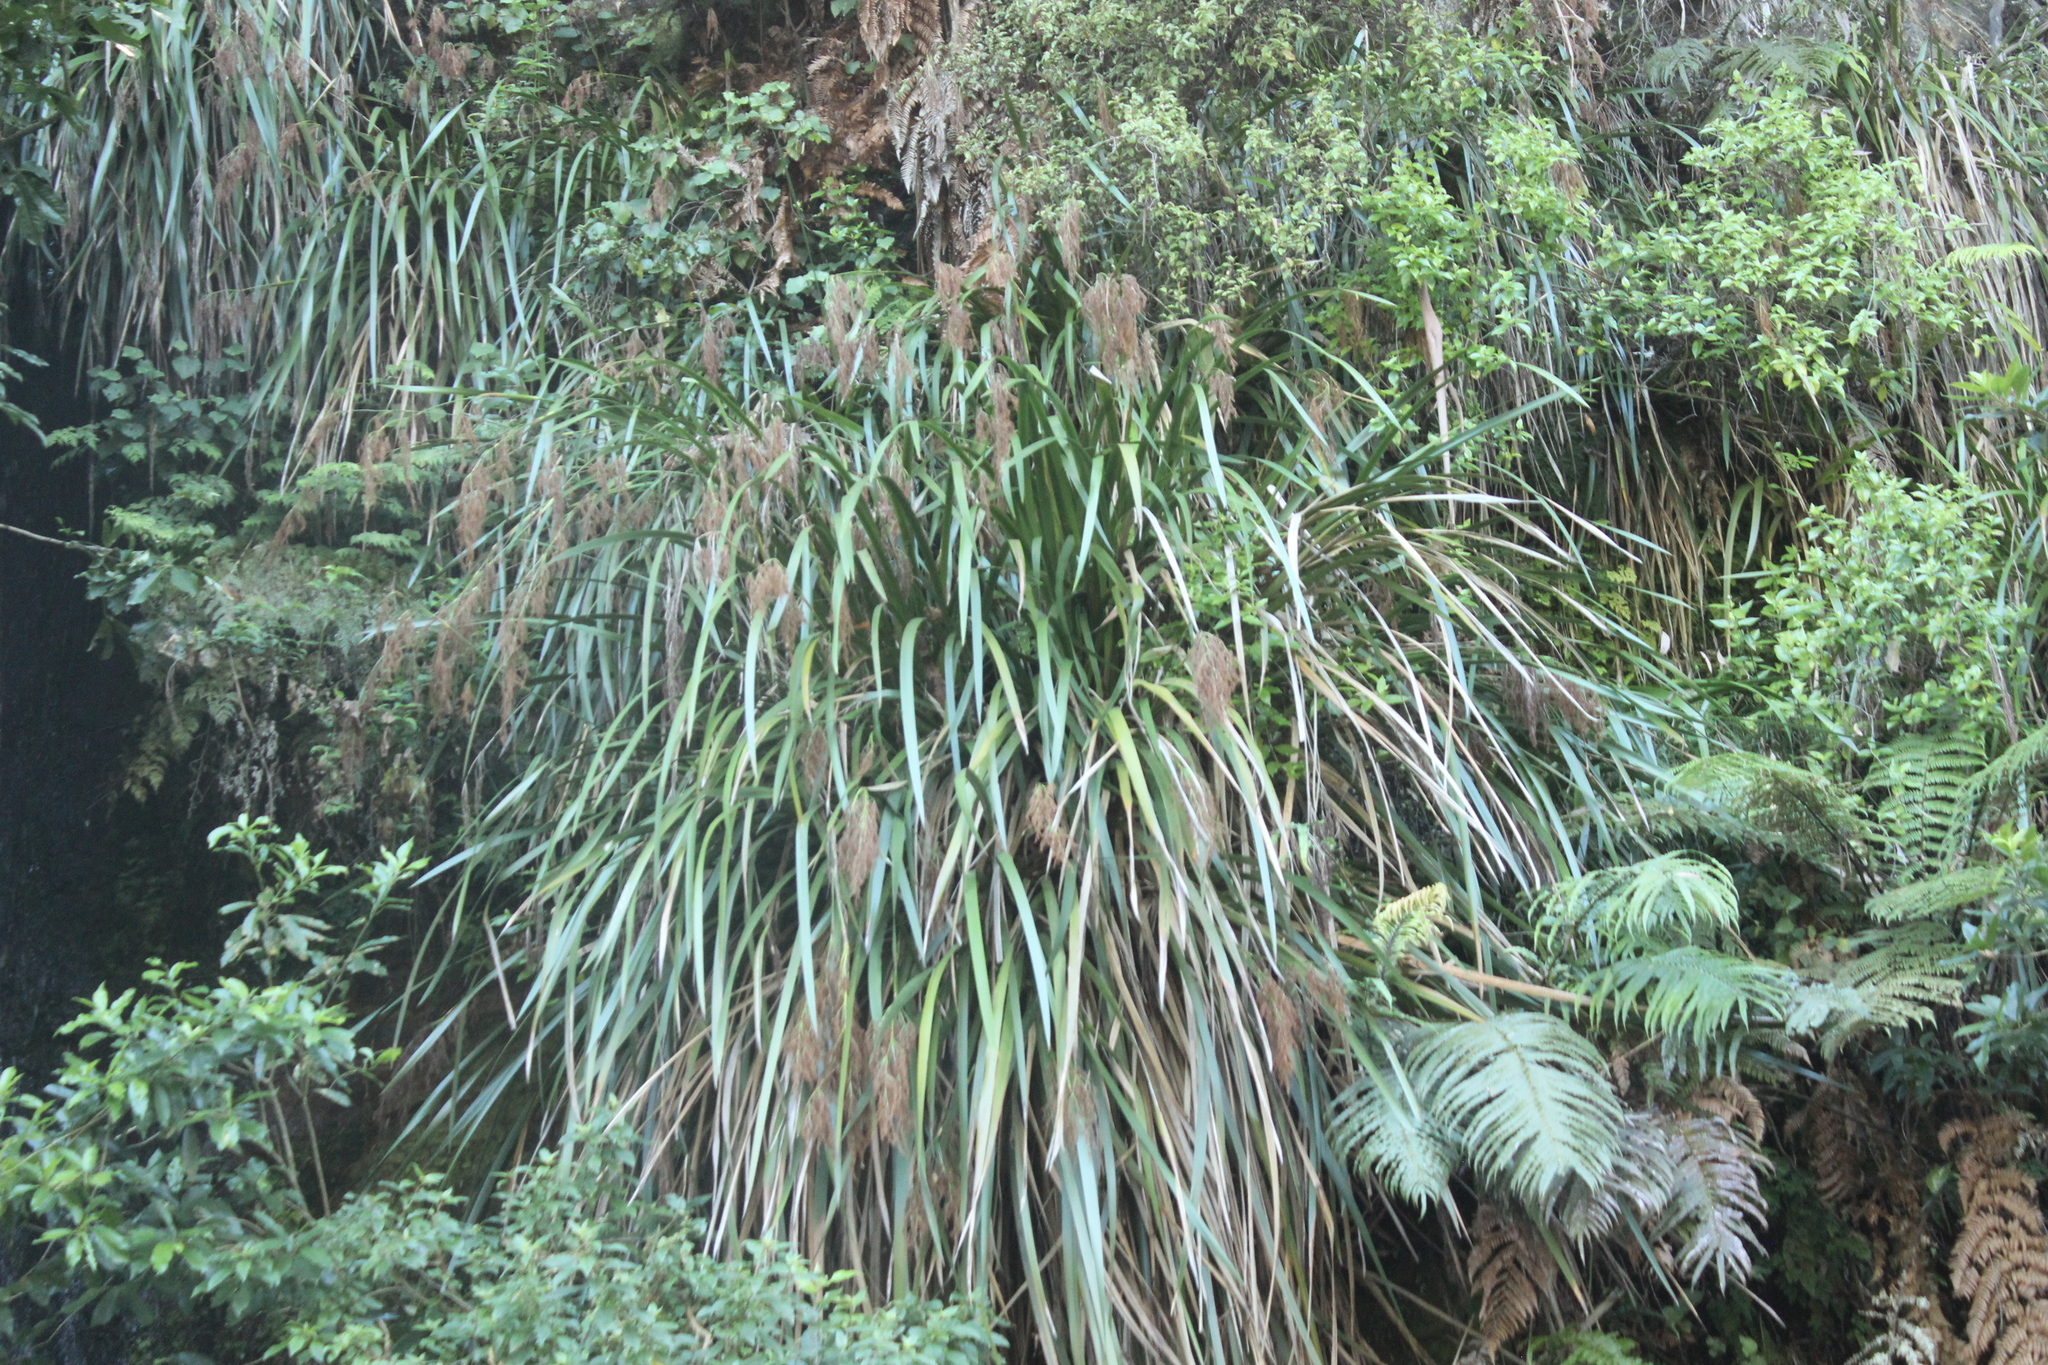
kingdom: Plantae
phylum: Tracheophyta
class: Liliopsida
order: Poales
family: Cyperaceae
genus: Machaerina
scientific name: Machaerina sinclairii
